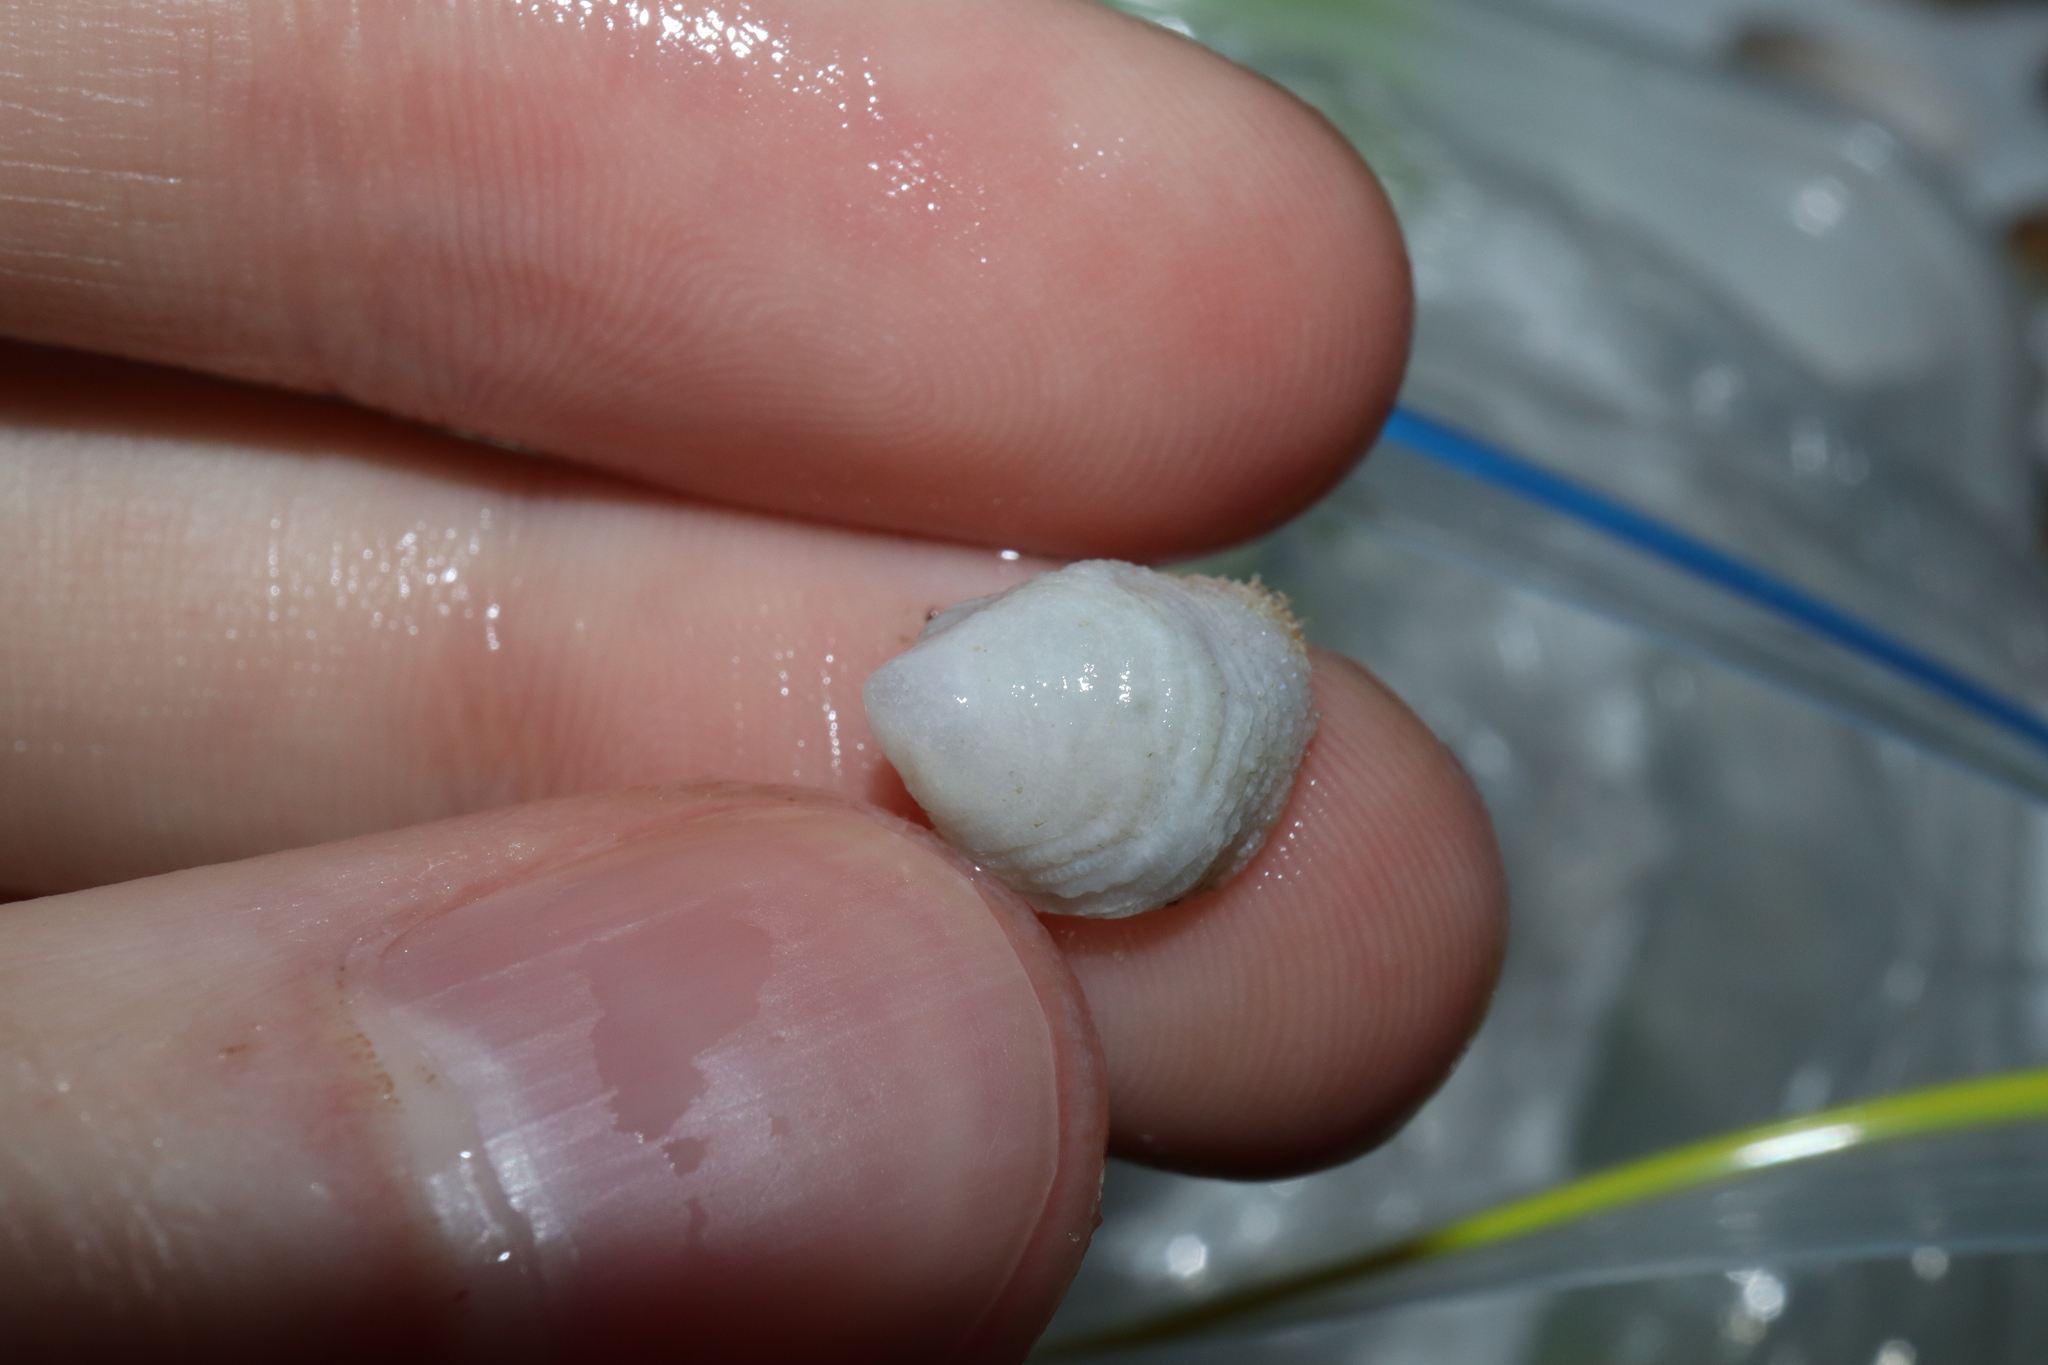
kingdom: Animalia
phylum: Mollusca
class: Gastropoda
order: Littorinimorpha
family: Hipponicidae
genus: Antisabia
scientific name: Antisabia foliacea
